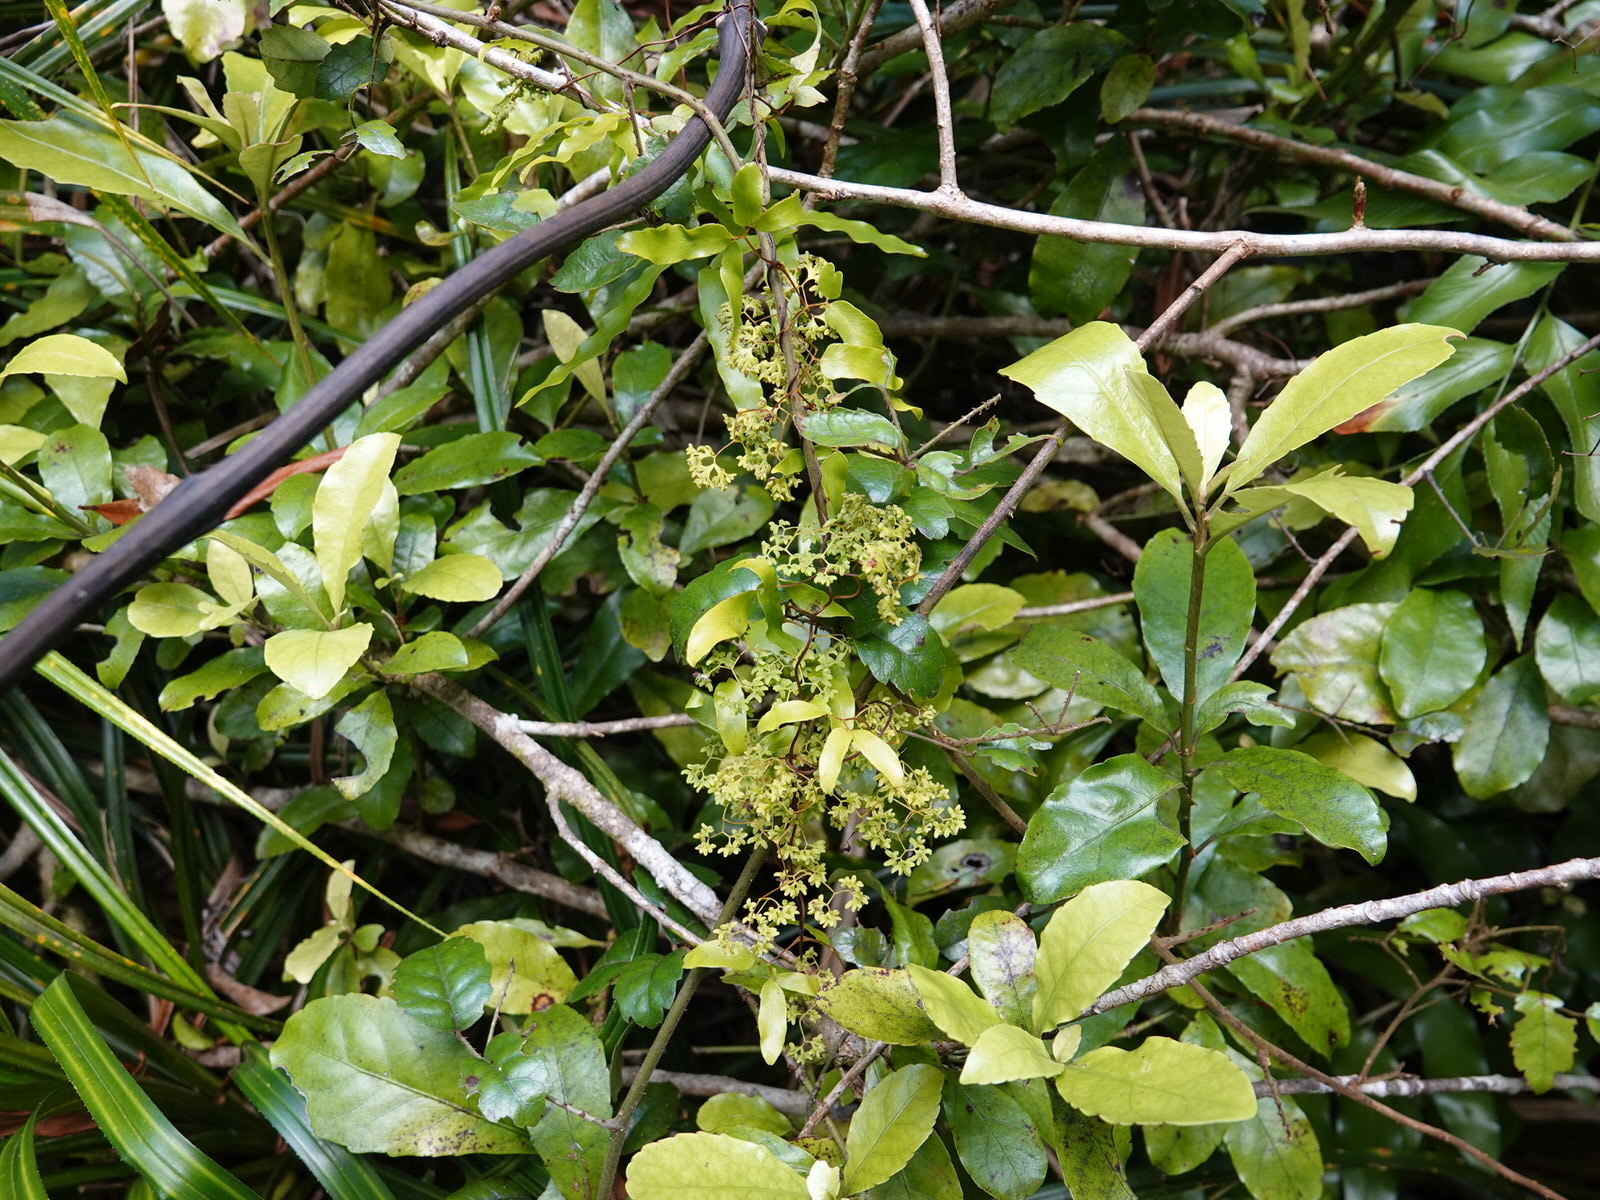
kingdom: Plantae
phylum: Tracheophyta
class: Polypodiopsida
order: Schizaeales
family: Lygodiaceae
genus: Lygodium
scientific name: Lygodium articulatum
